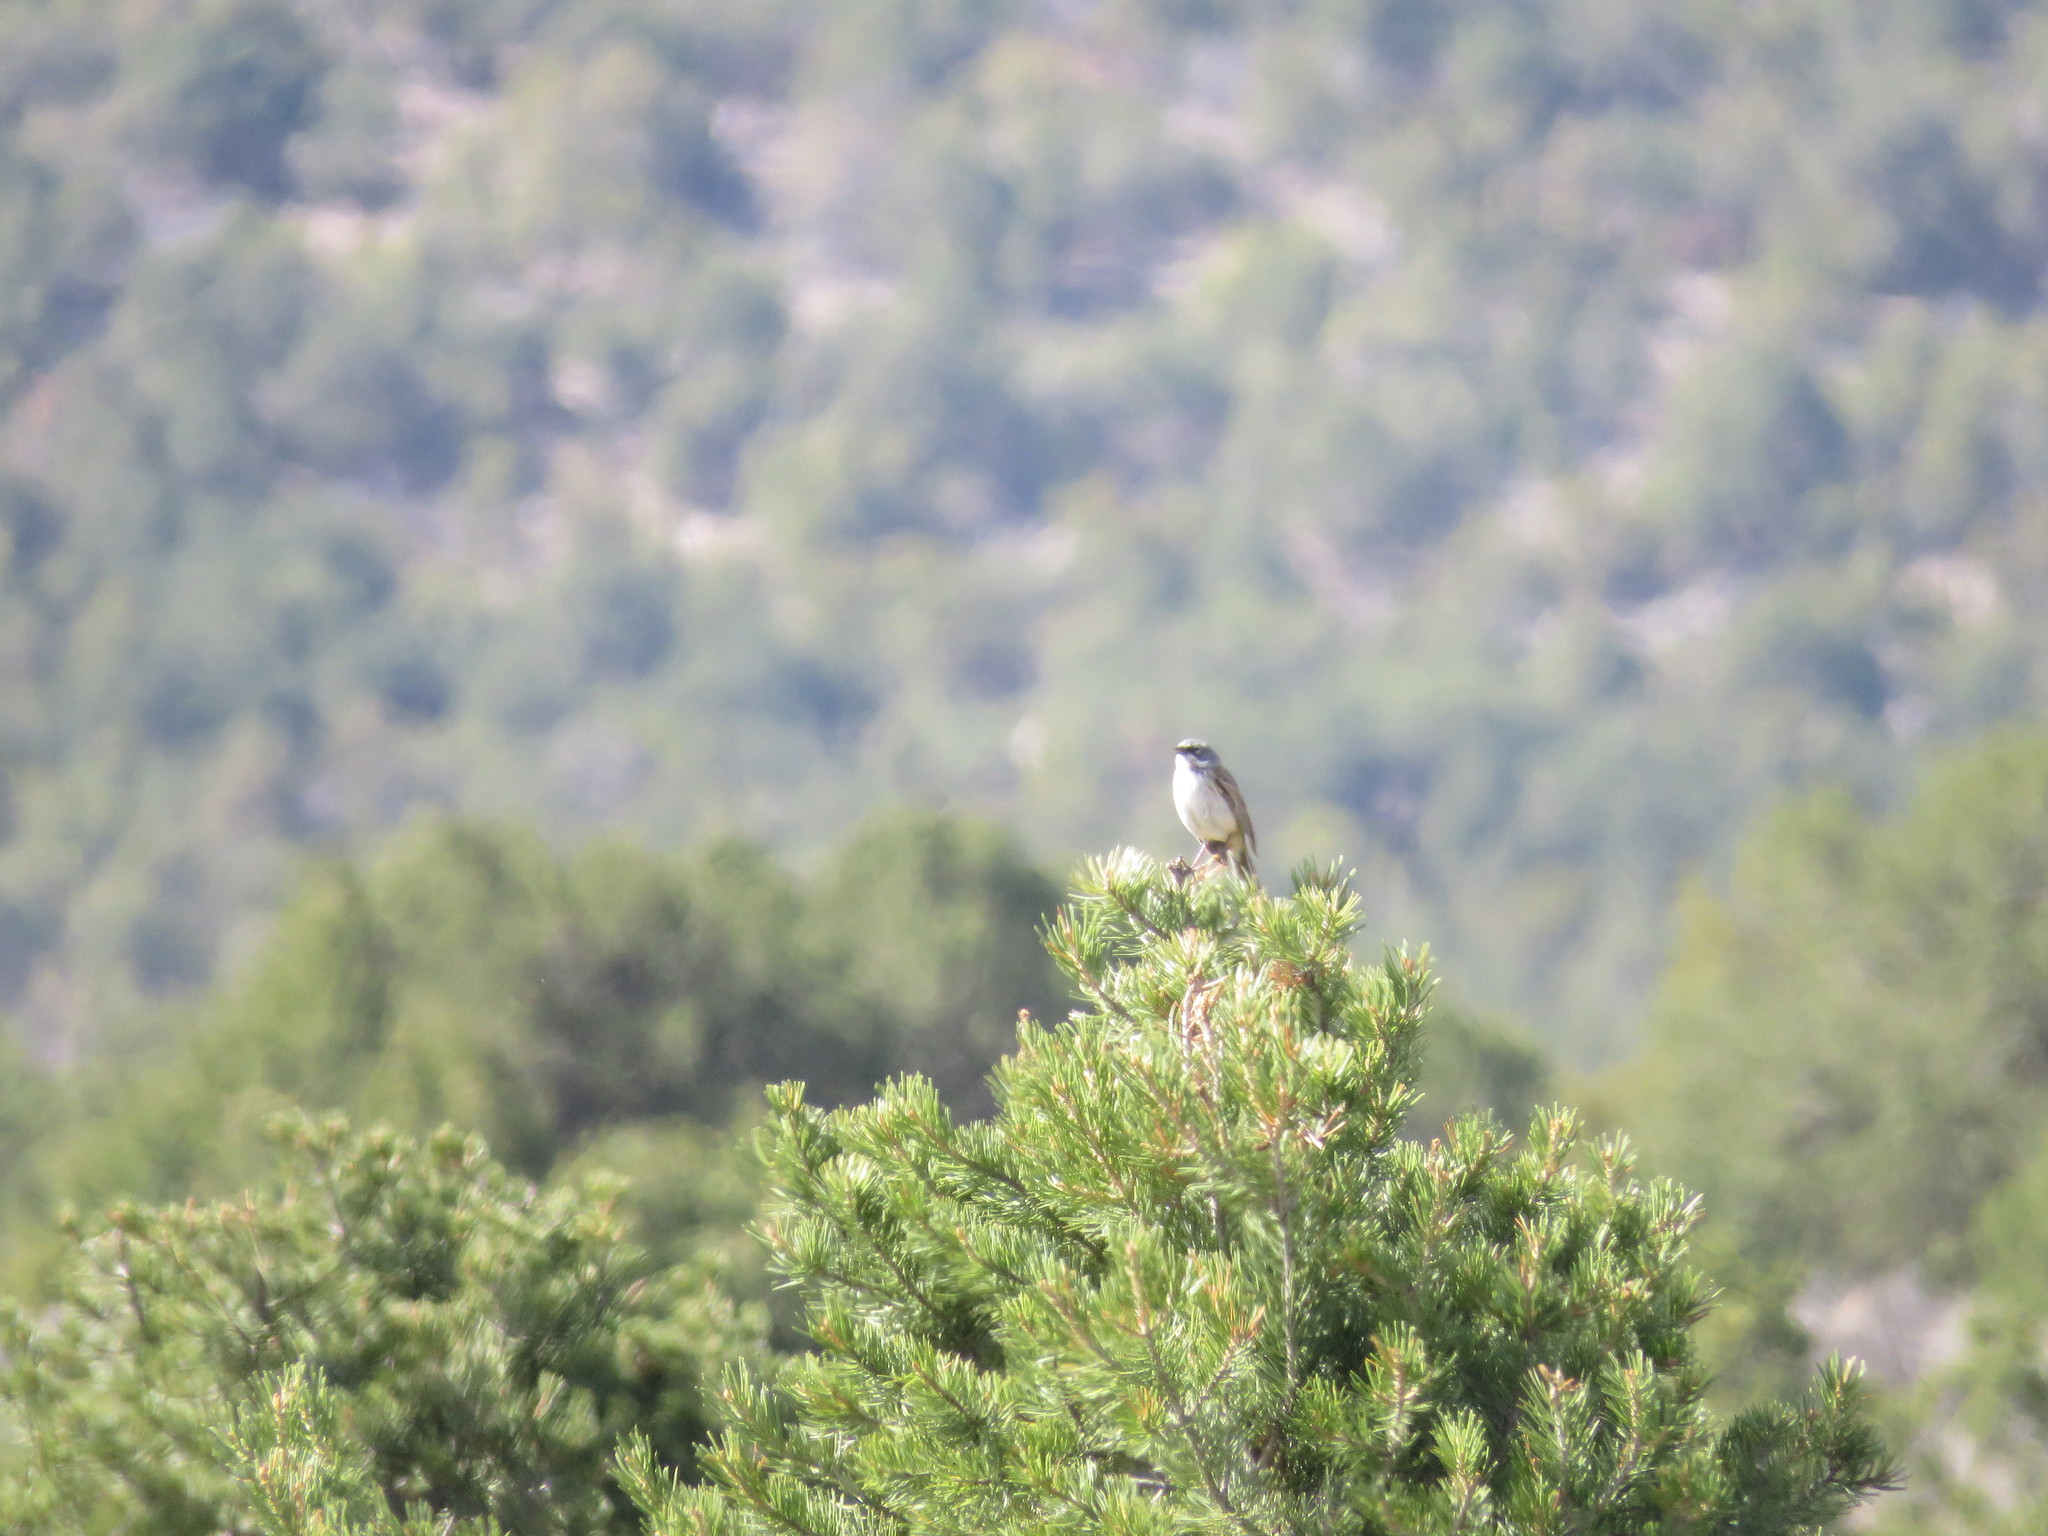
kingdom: Animalia
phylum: Chordata
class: Aves
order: Passeriformes
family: Passerellidae
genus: Artemisiospiza
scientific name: Artemisiospiza nevadensis
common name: Sagebrush sparrow
